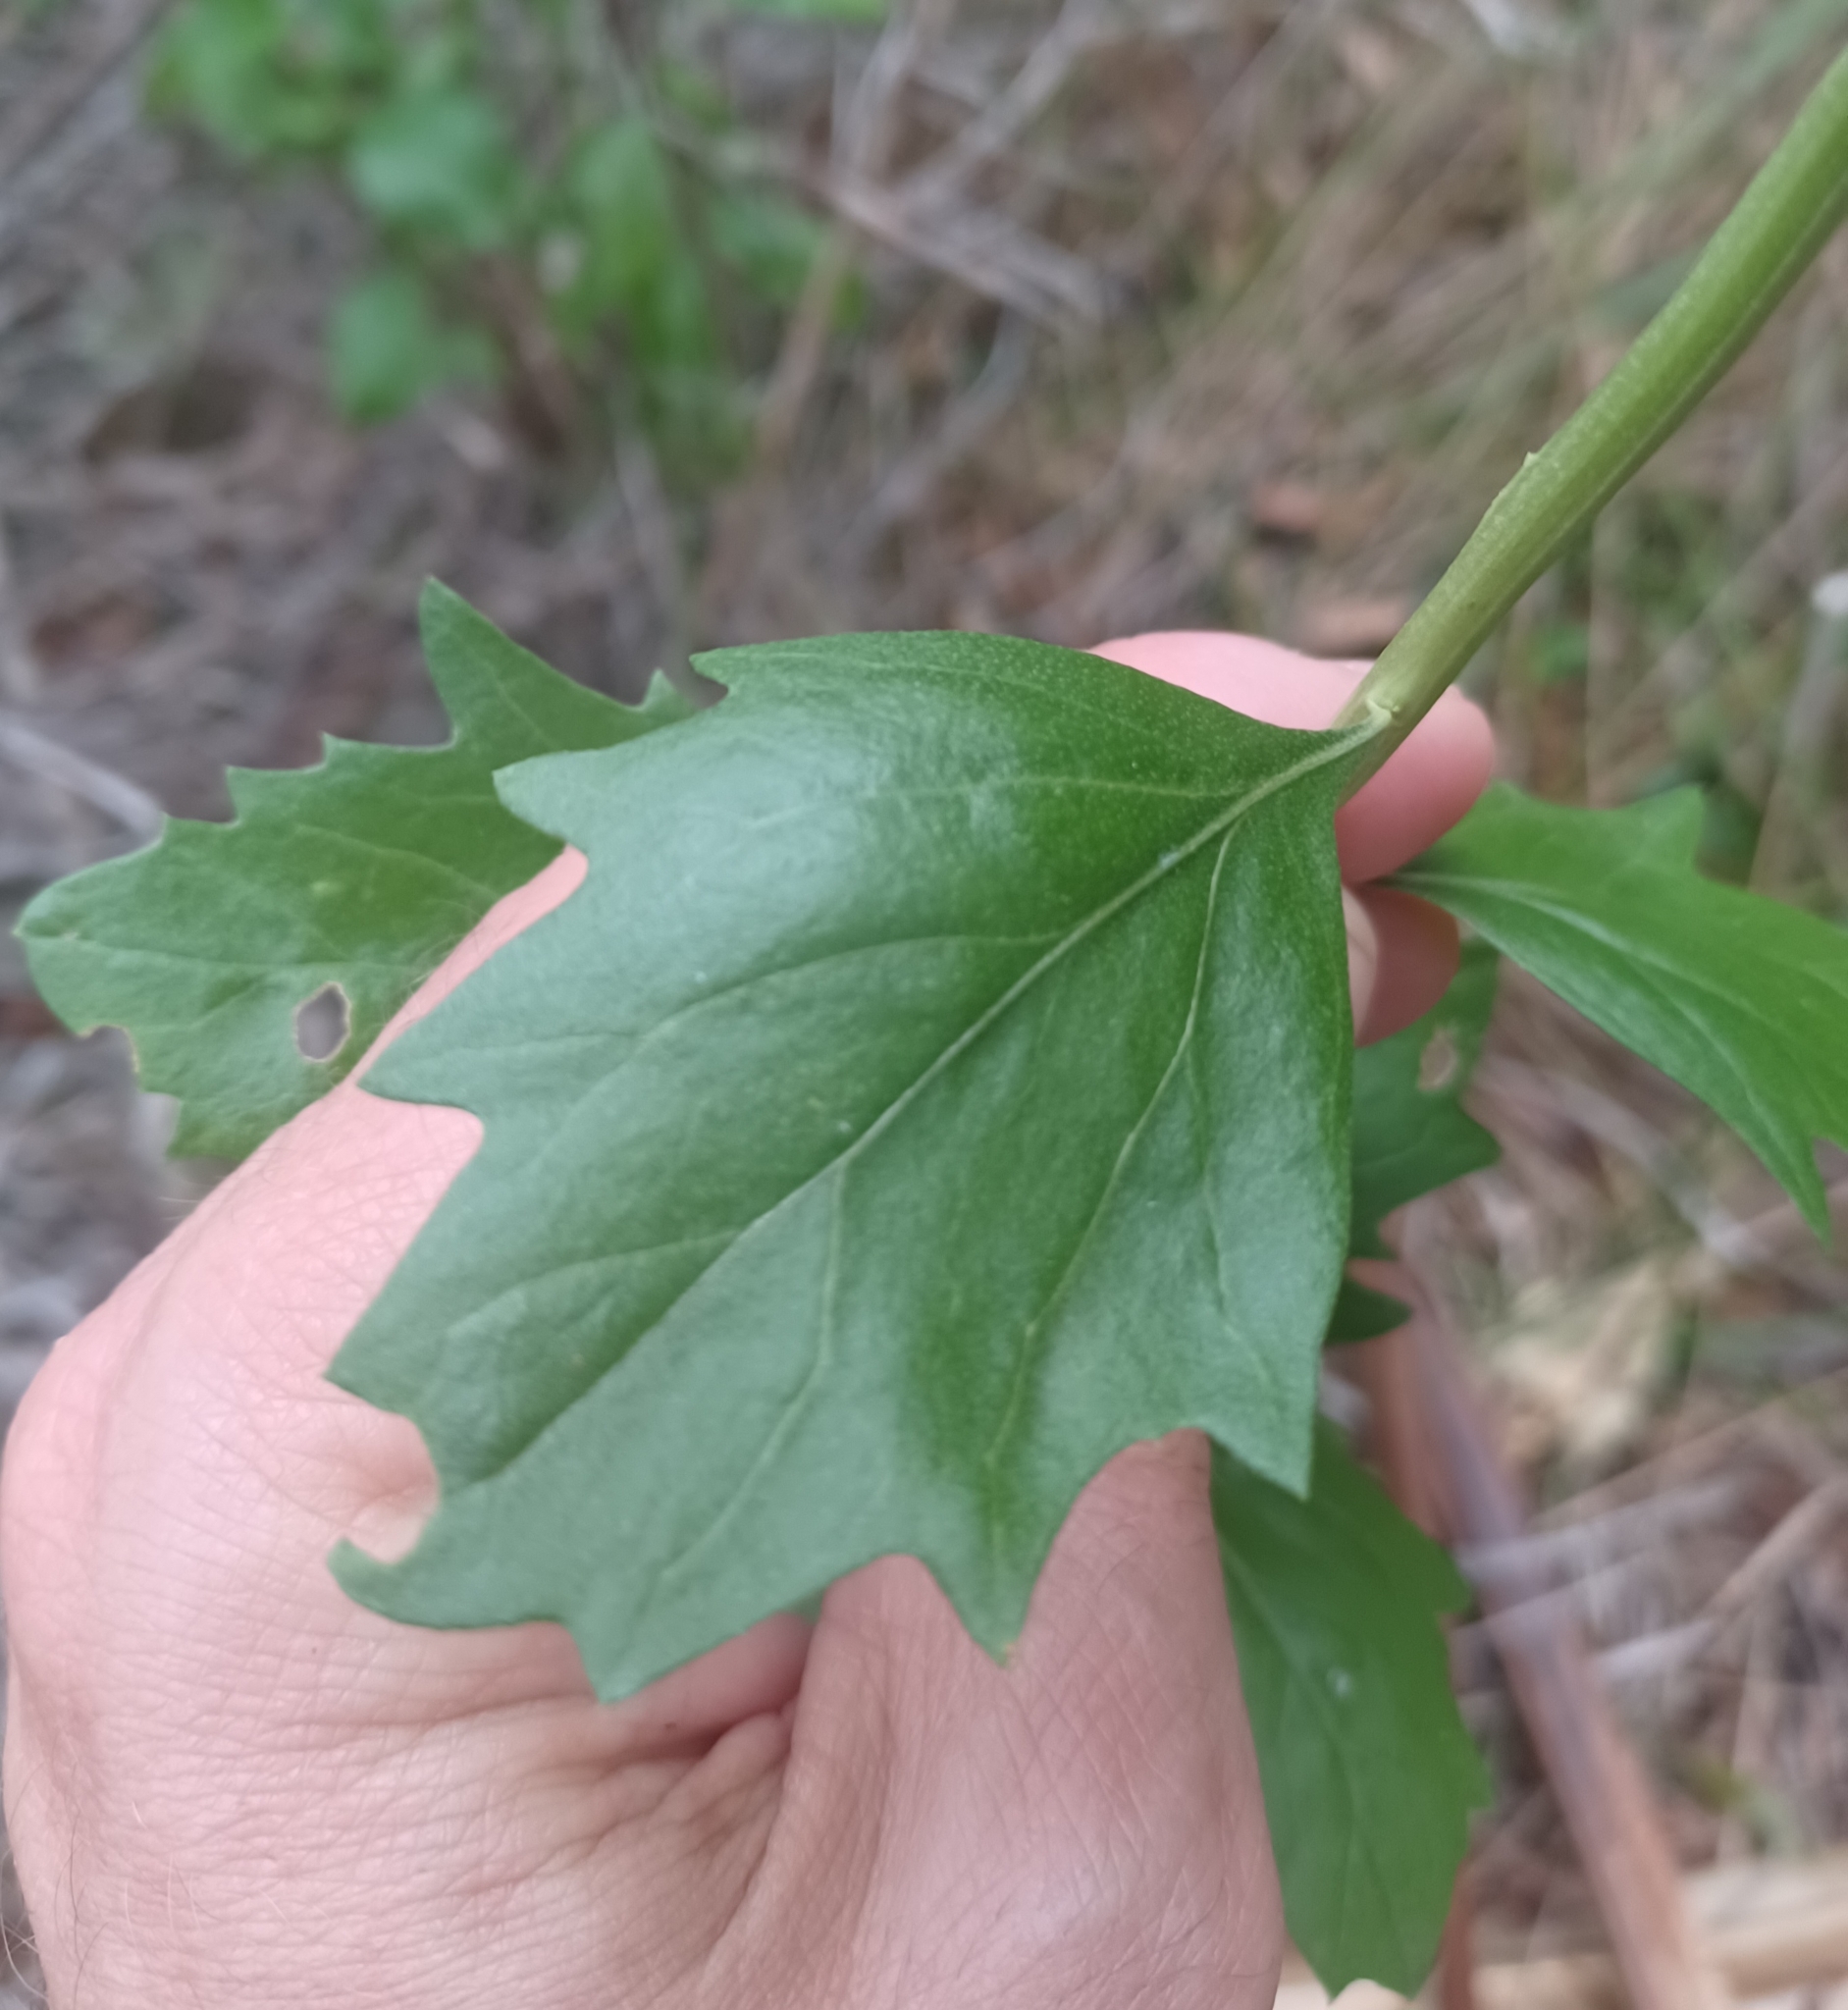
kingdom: Plantae
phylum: Tracheophyta
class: Magnoliopsida
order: Asterales
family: Asteraceae
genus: Baccharis
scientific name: Baccharis halimifolia
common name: Eastern baccharis
